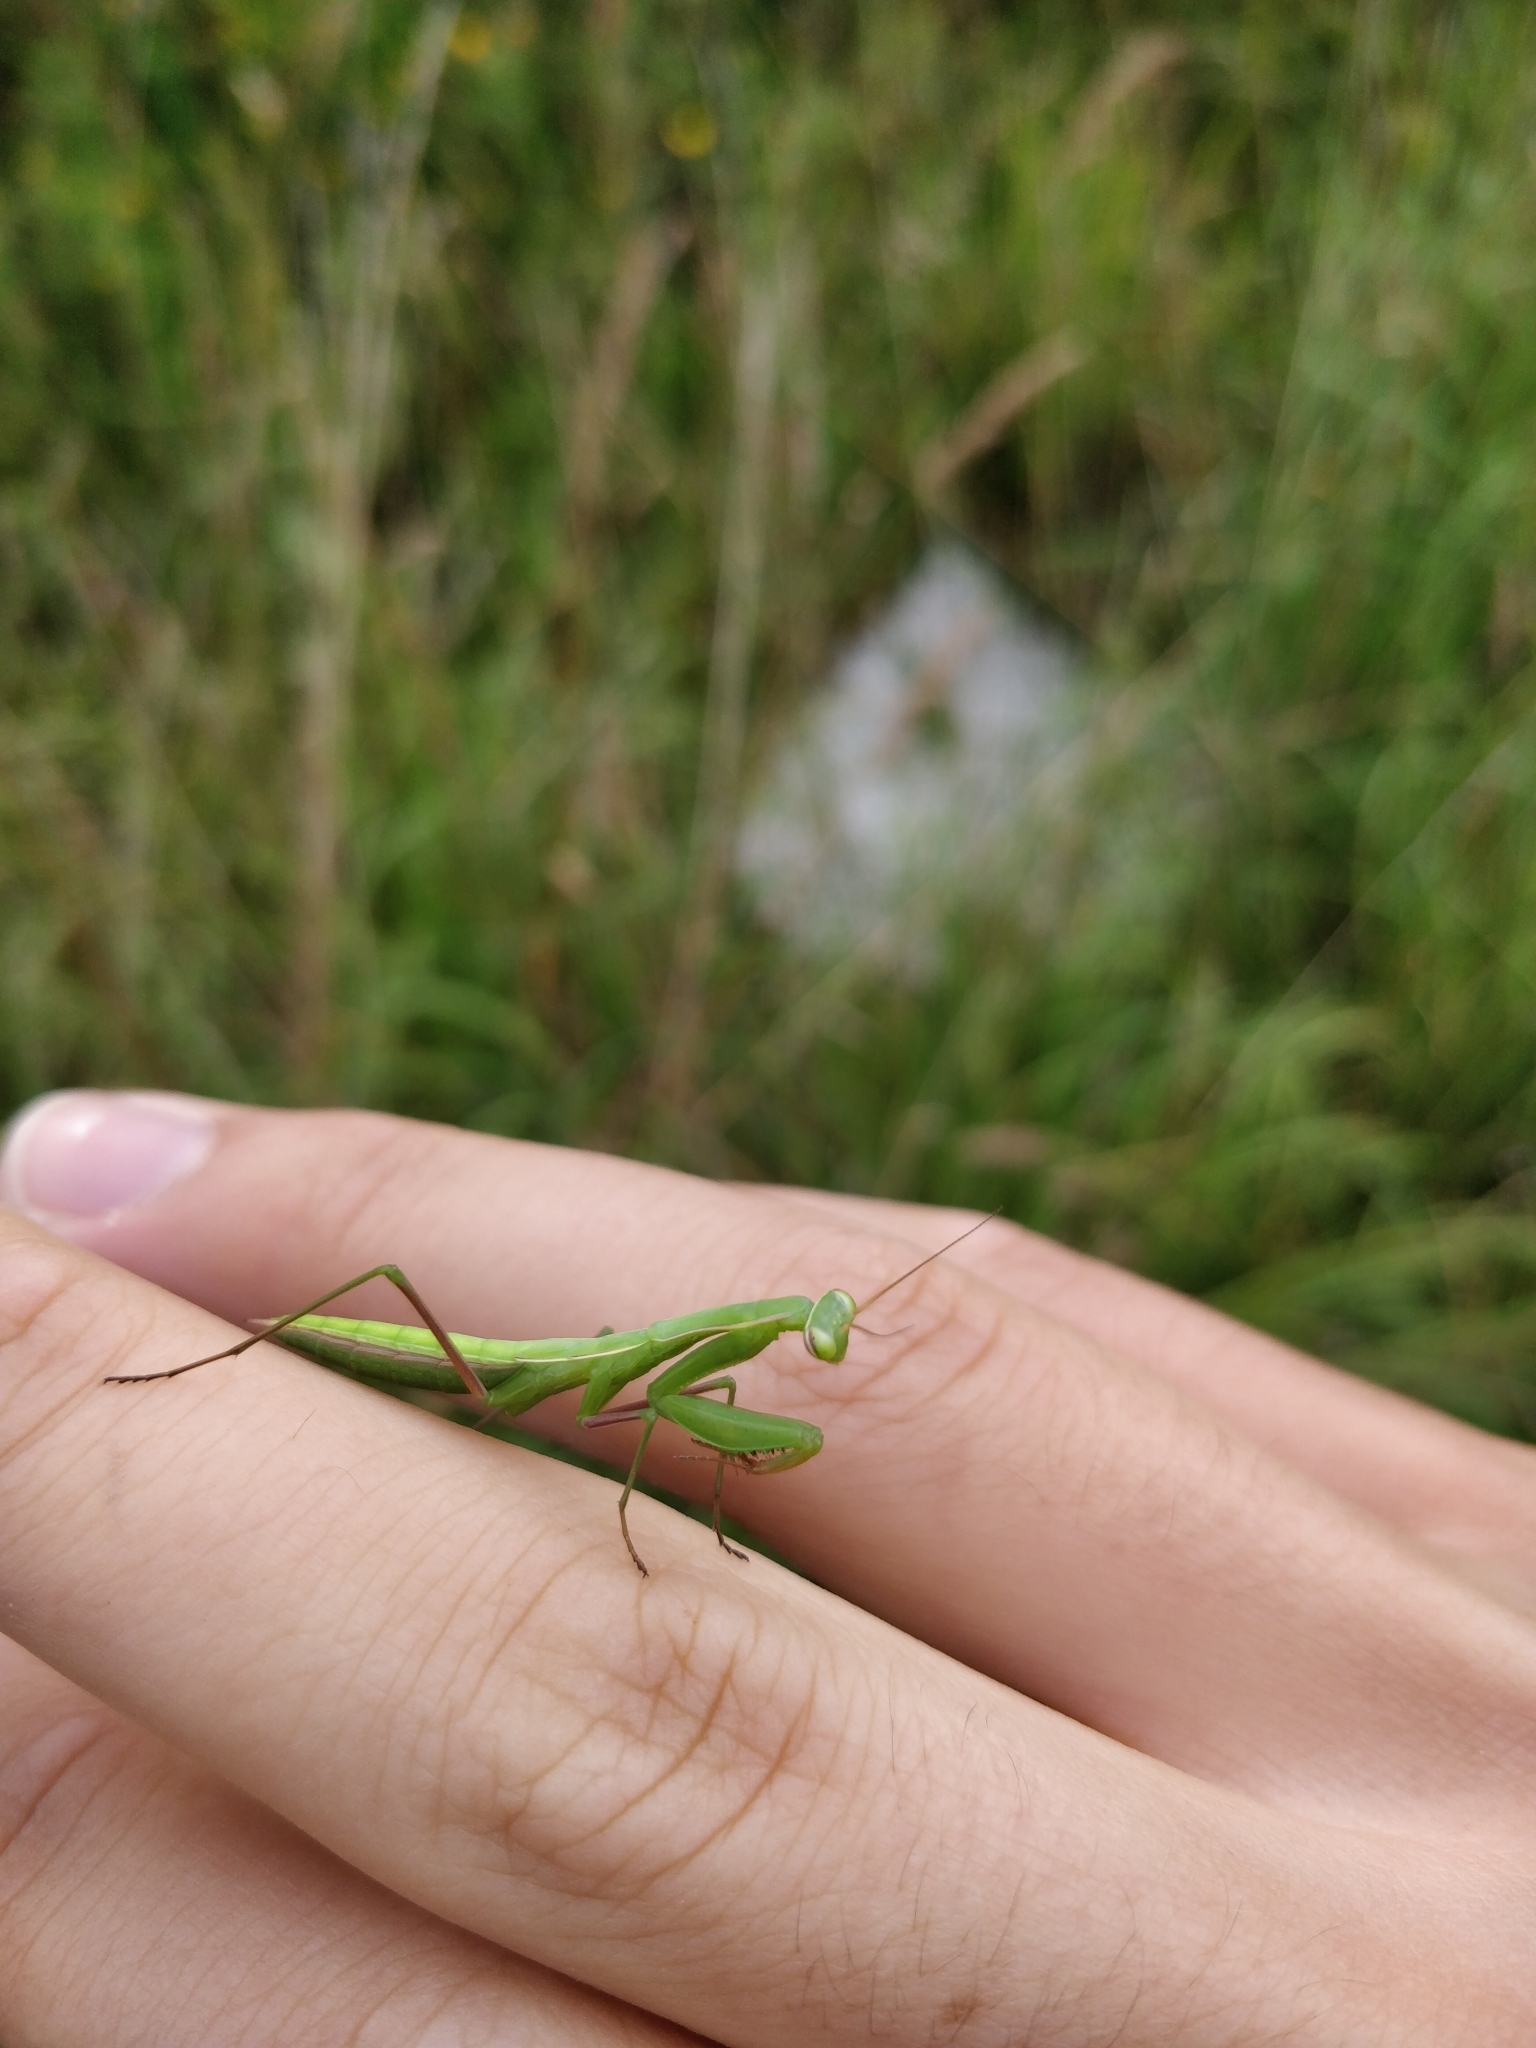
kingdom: Animalia
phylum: Arthropoda
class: Insecta
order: Mantodea
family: Mantidae
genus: Mantis
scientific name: Mantis religiosa
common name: Praying mantis
